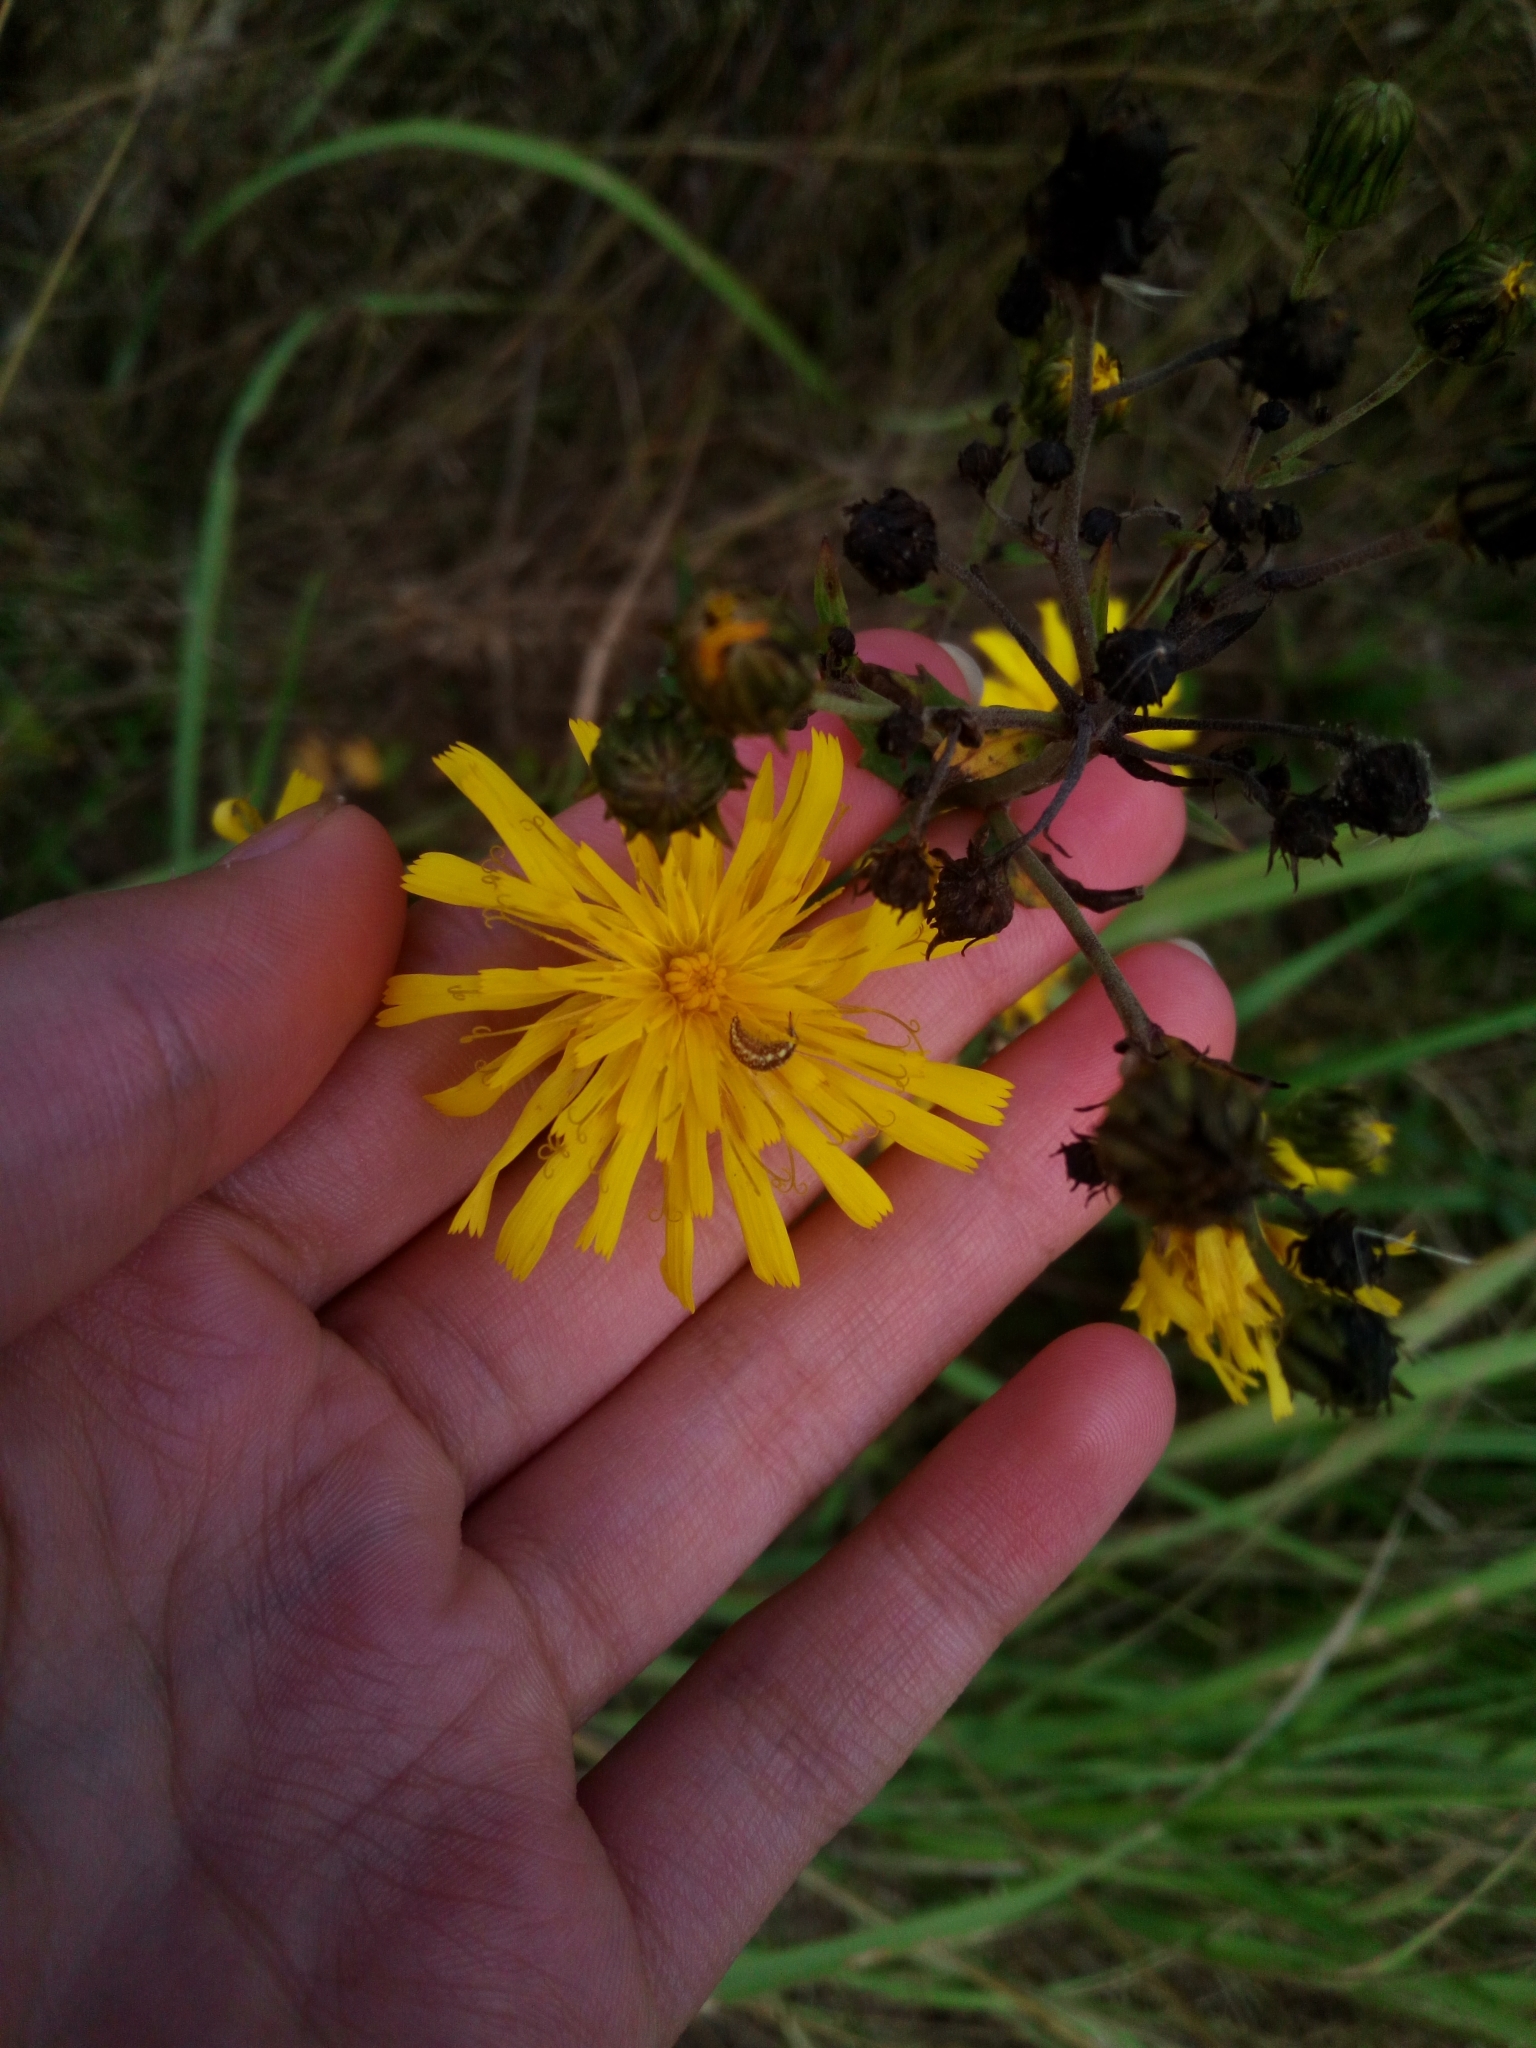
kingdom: Plantae
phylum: Tracheophyta
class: Magnoliopsida
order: Asterales
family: Asteraceae
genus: Hieracium
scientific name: Hieracium umbellatum
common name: Northern hawkweed
